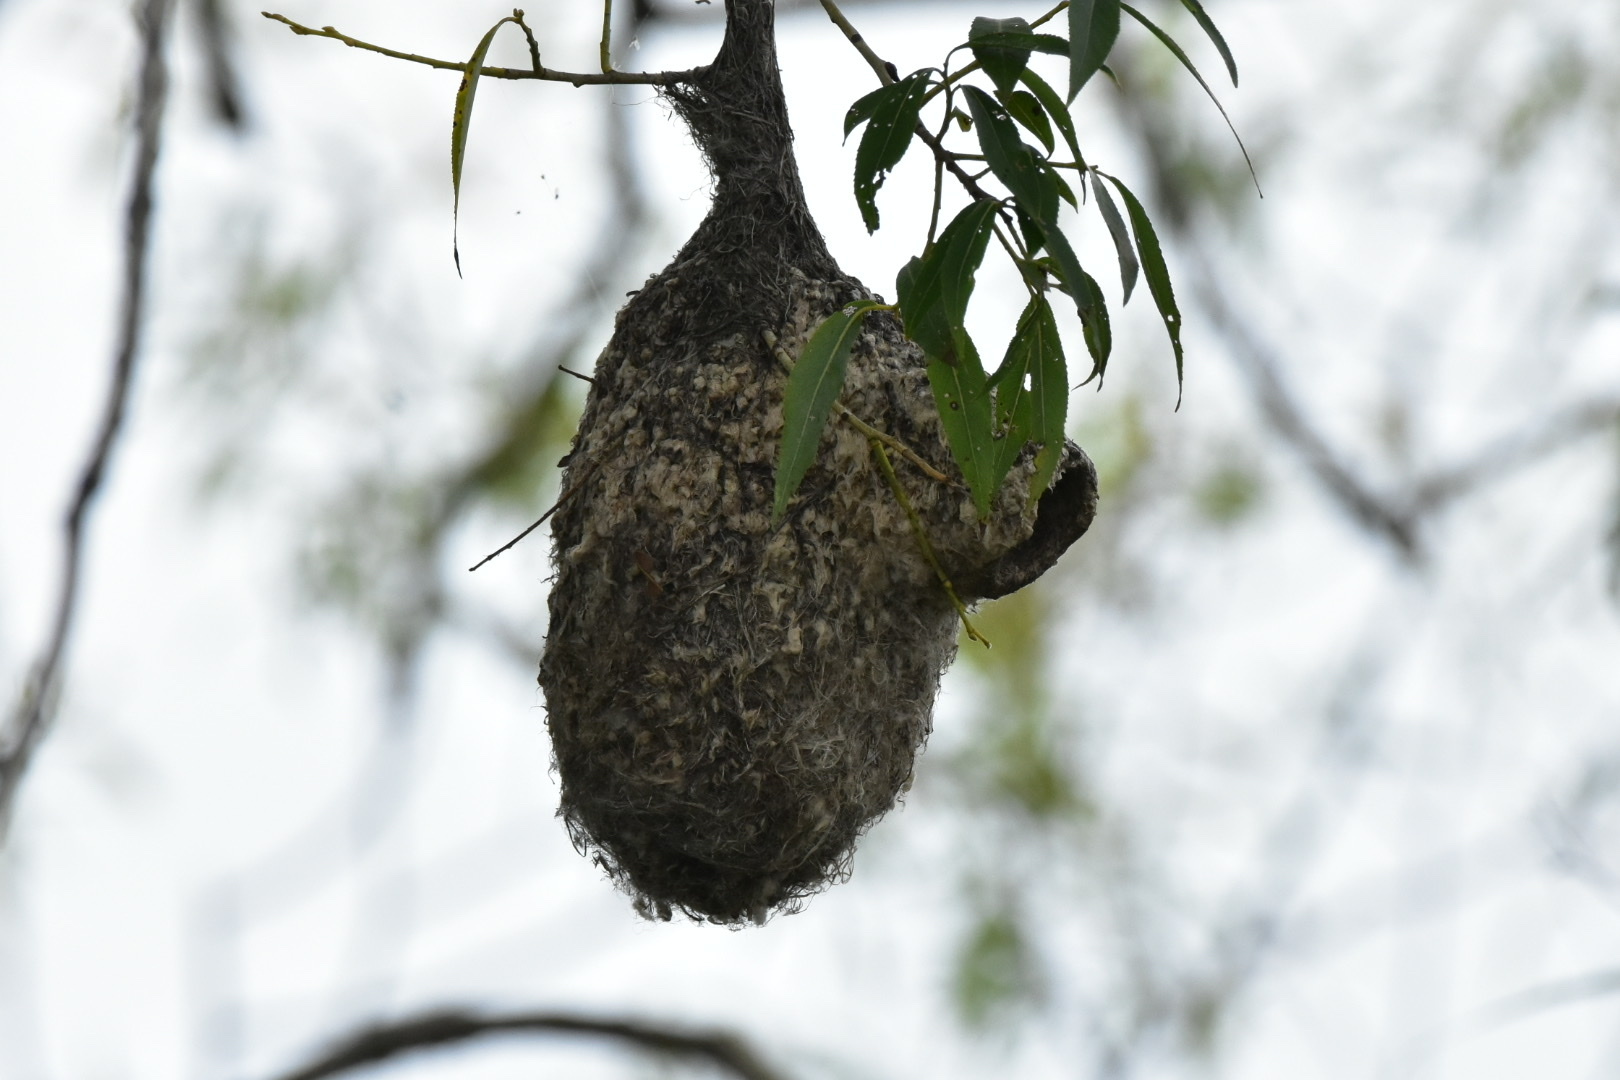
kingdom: Animalia
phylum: Chordata
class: Aves
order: Passeriformes
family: Remizidae
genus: Remiz
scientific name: Remiz consobrinus
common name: Chinese penduline tit
